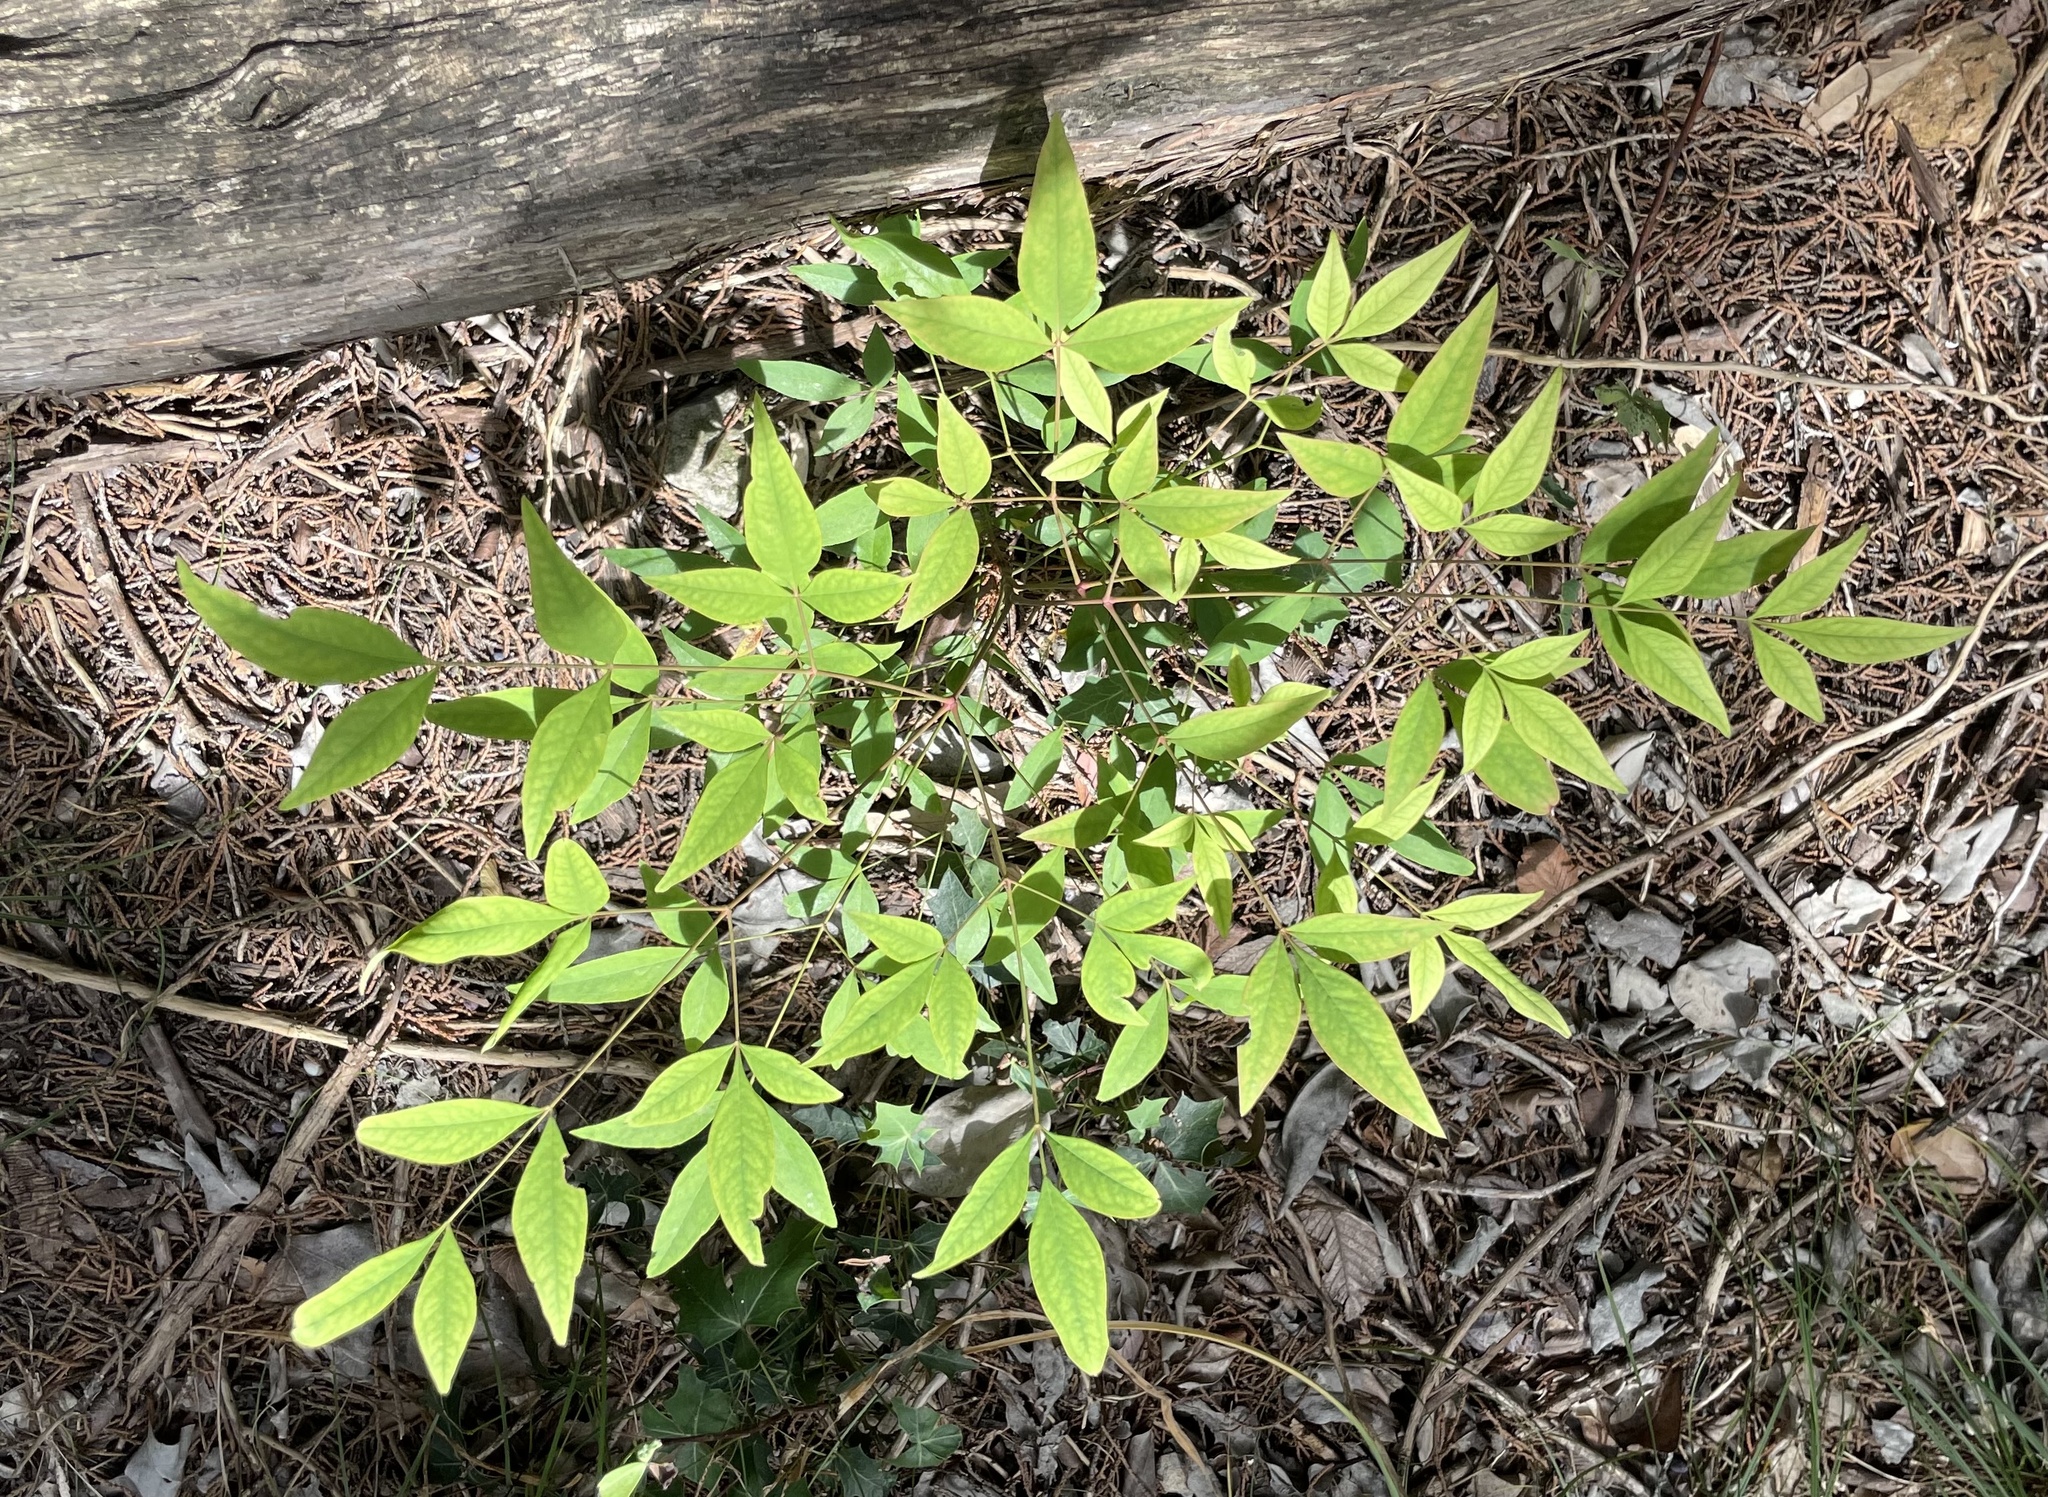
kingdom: Plantae
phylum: Tracheophyta
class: Magnoliopsida
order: Ranunculales
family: Berberidaceae
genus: Nandina
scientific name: Nandina domestica
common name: Sacred bamboo
